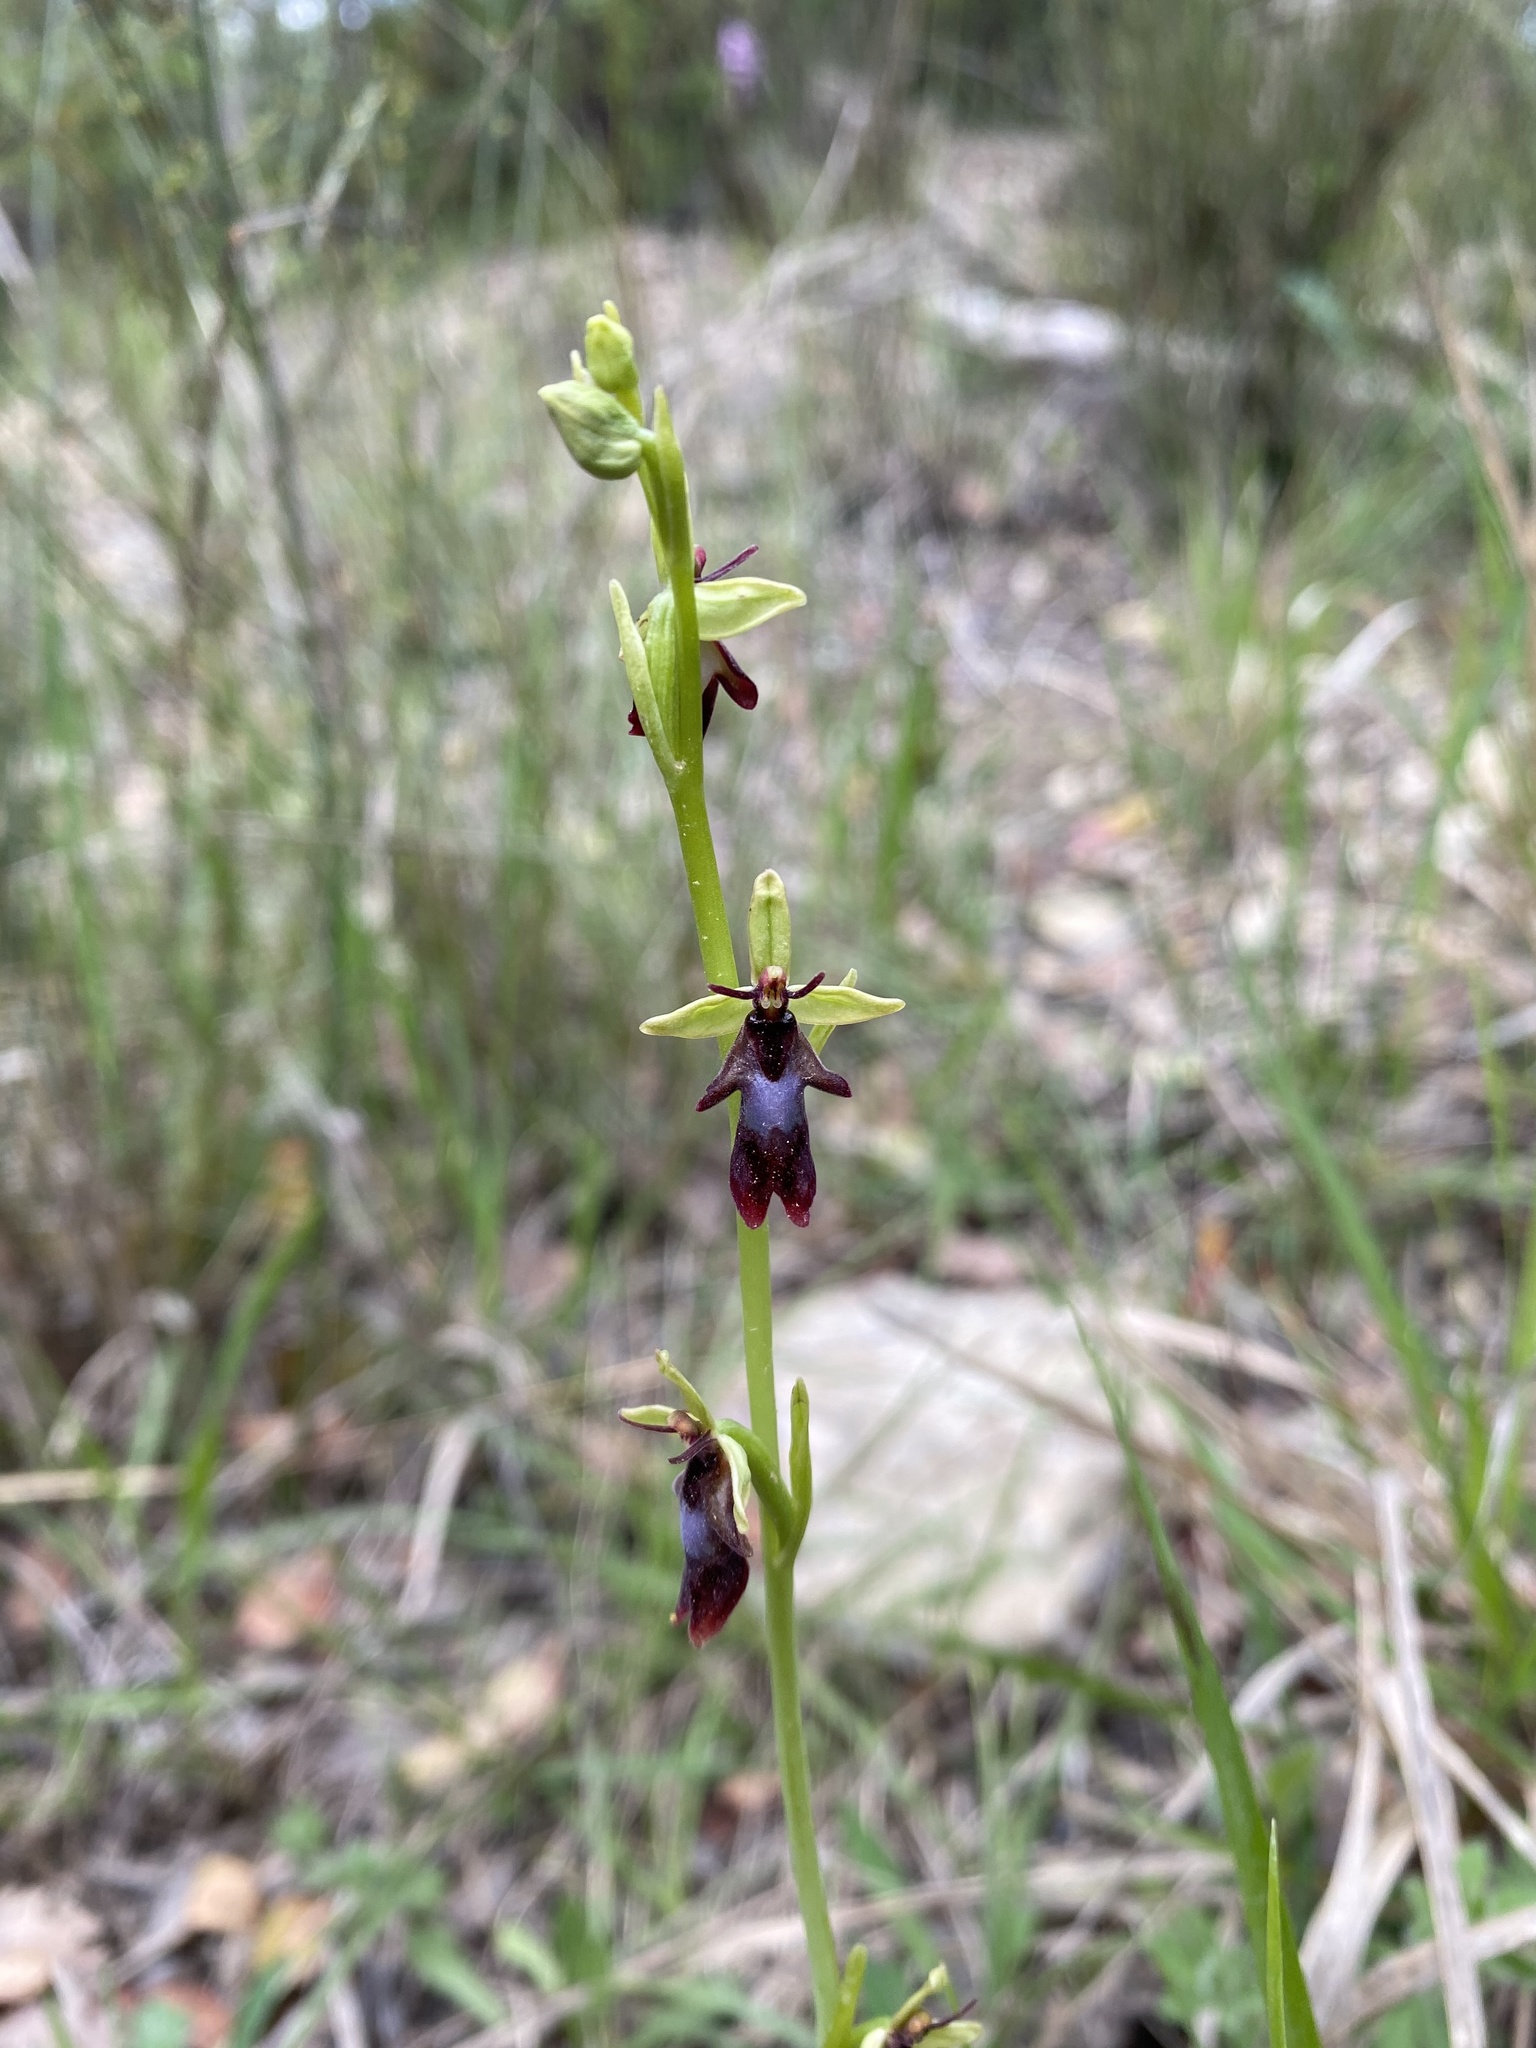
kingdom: Plantae
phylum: Tracheophyta
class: Liliopsida
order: Asparagales
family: Orchidaceae
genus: Ophrys
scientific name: Ophrys insectifera
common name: Fly orchid
